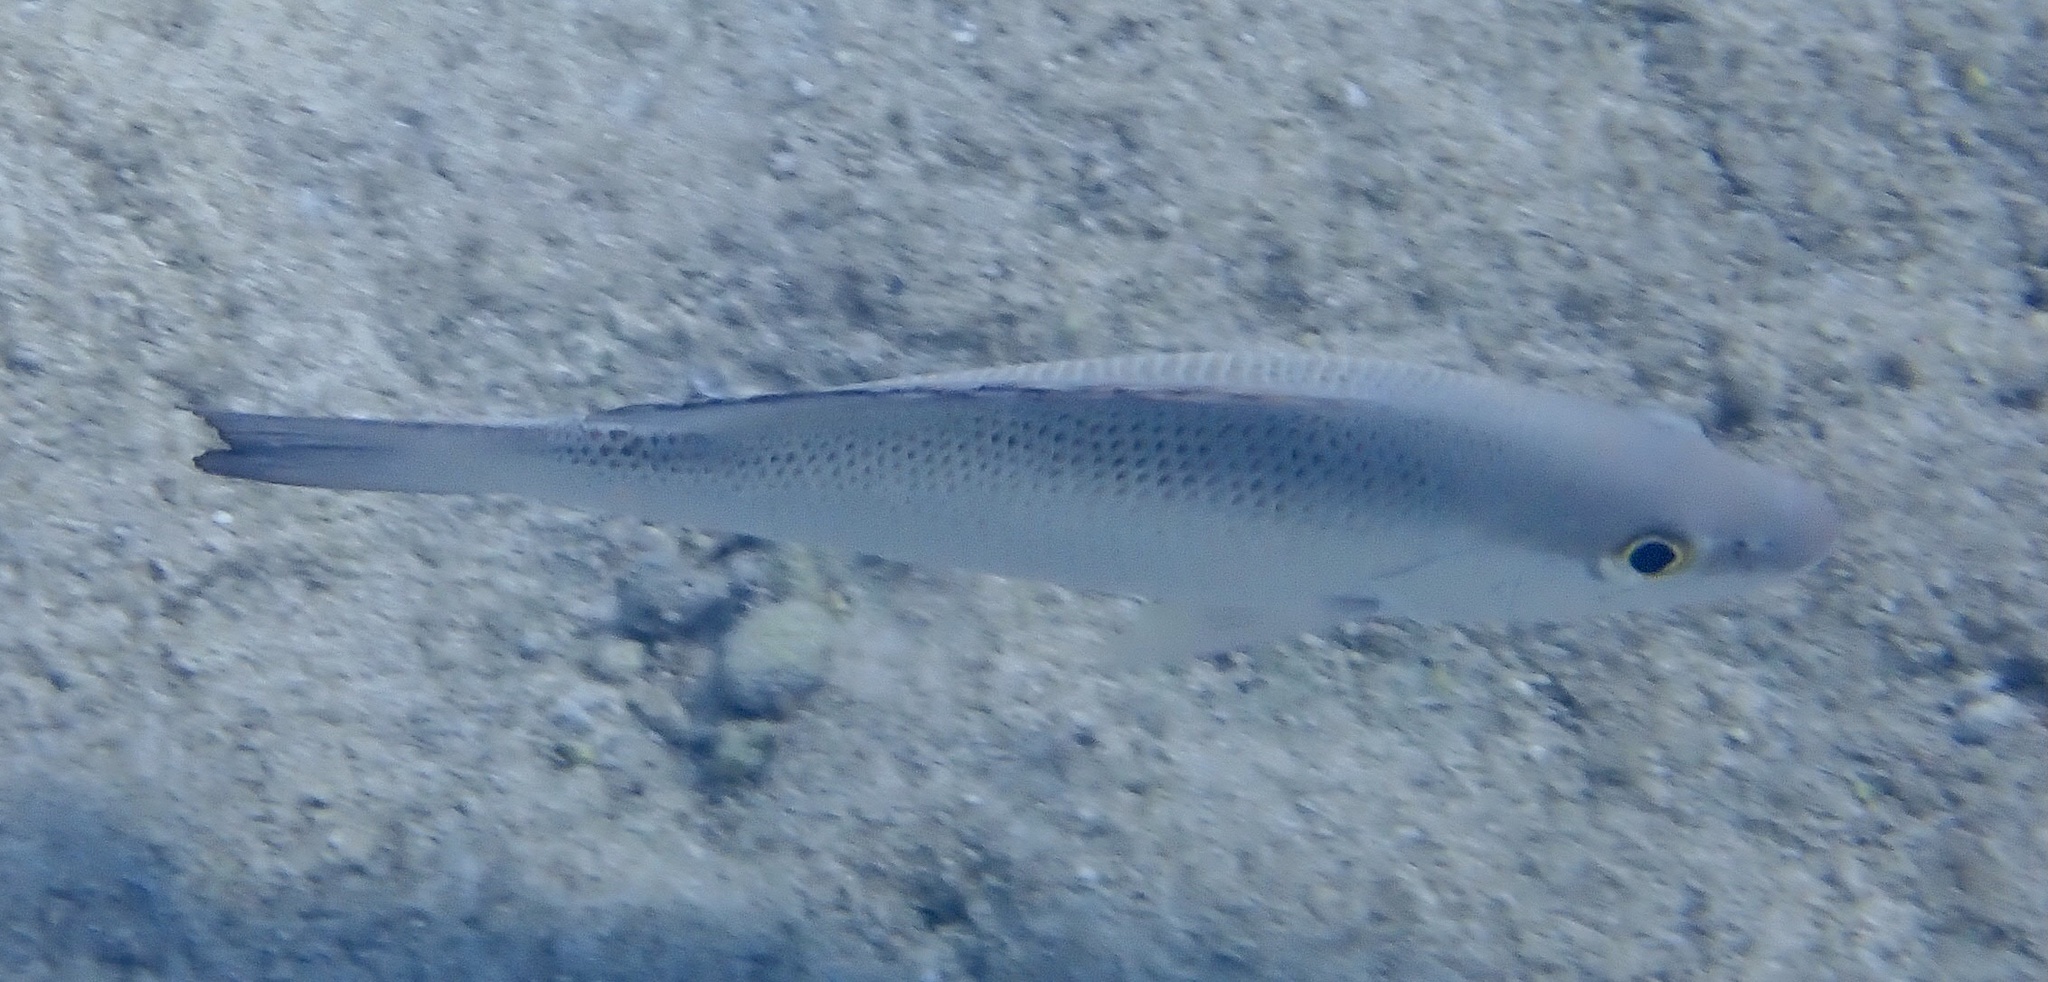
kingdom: Animalia
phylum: Chordata
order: Perciformes
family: Lutjanidae
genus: Lutjanus
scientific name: Lutjanus griseus
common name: Gray snapper
